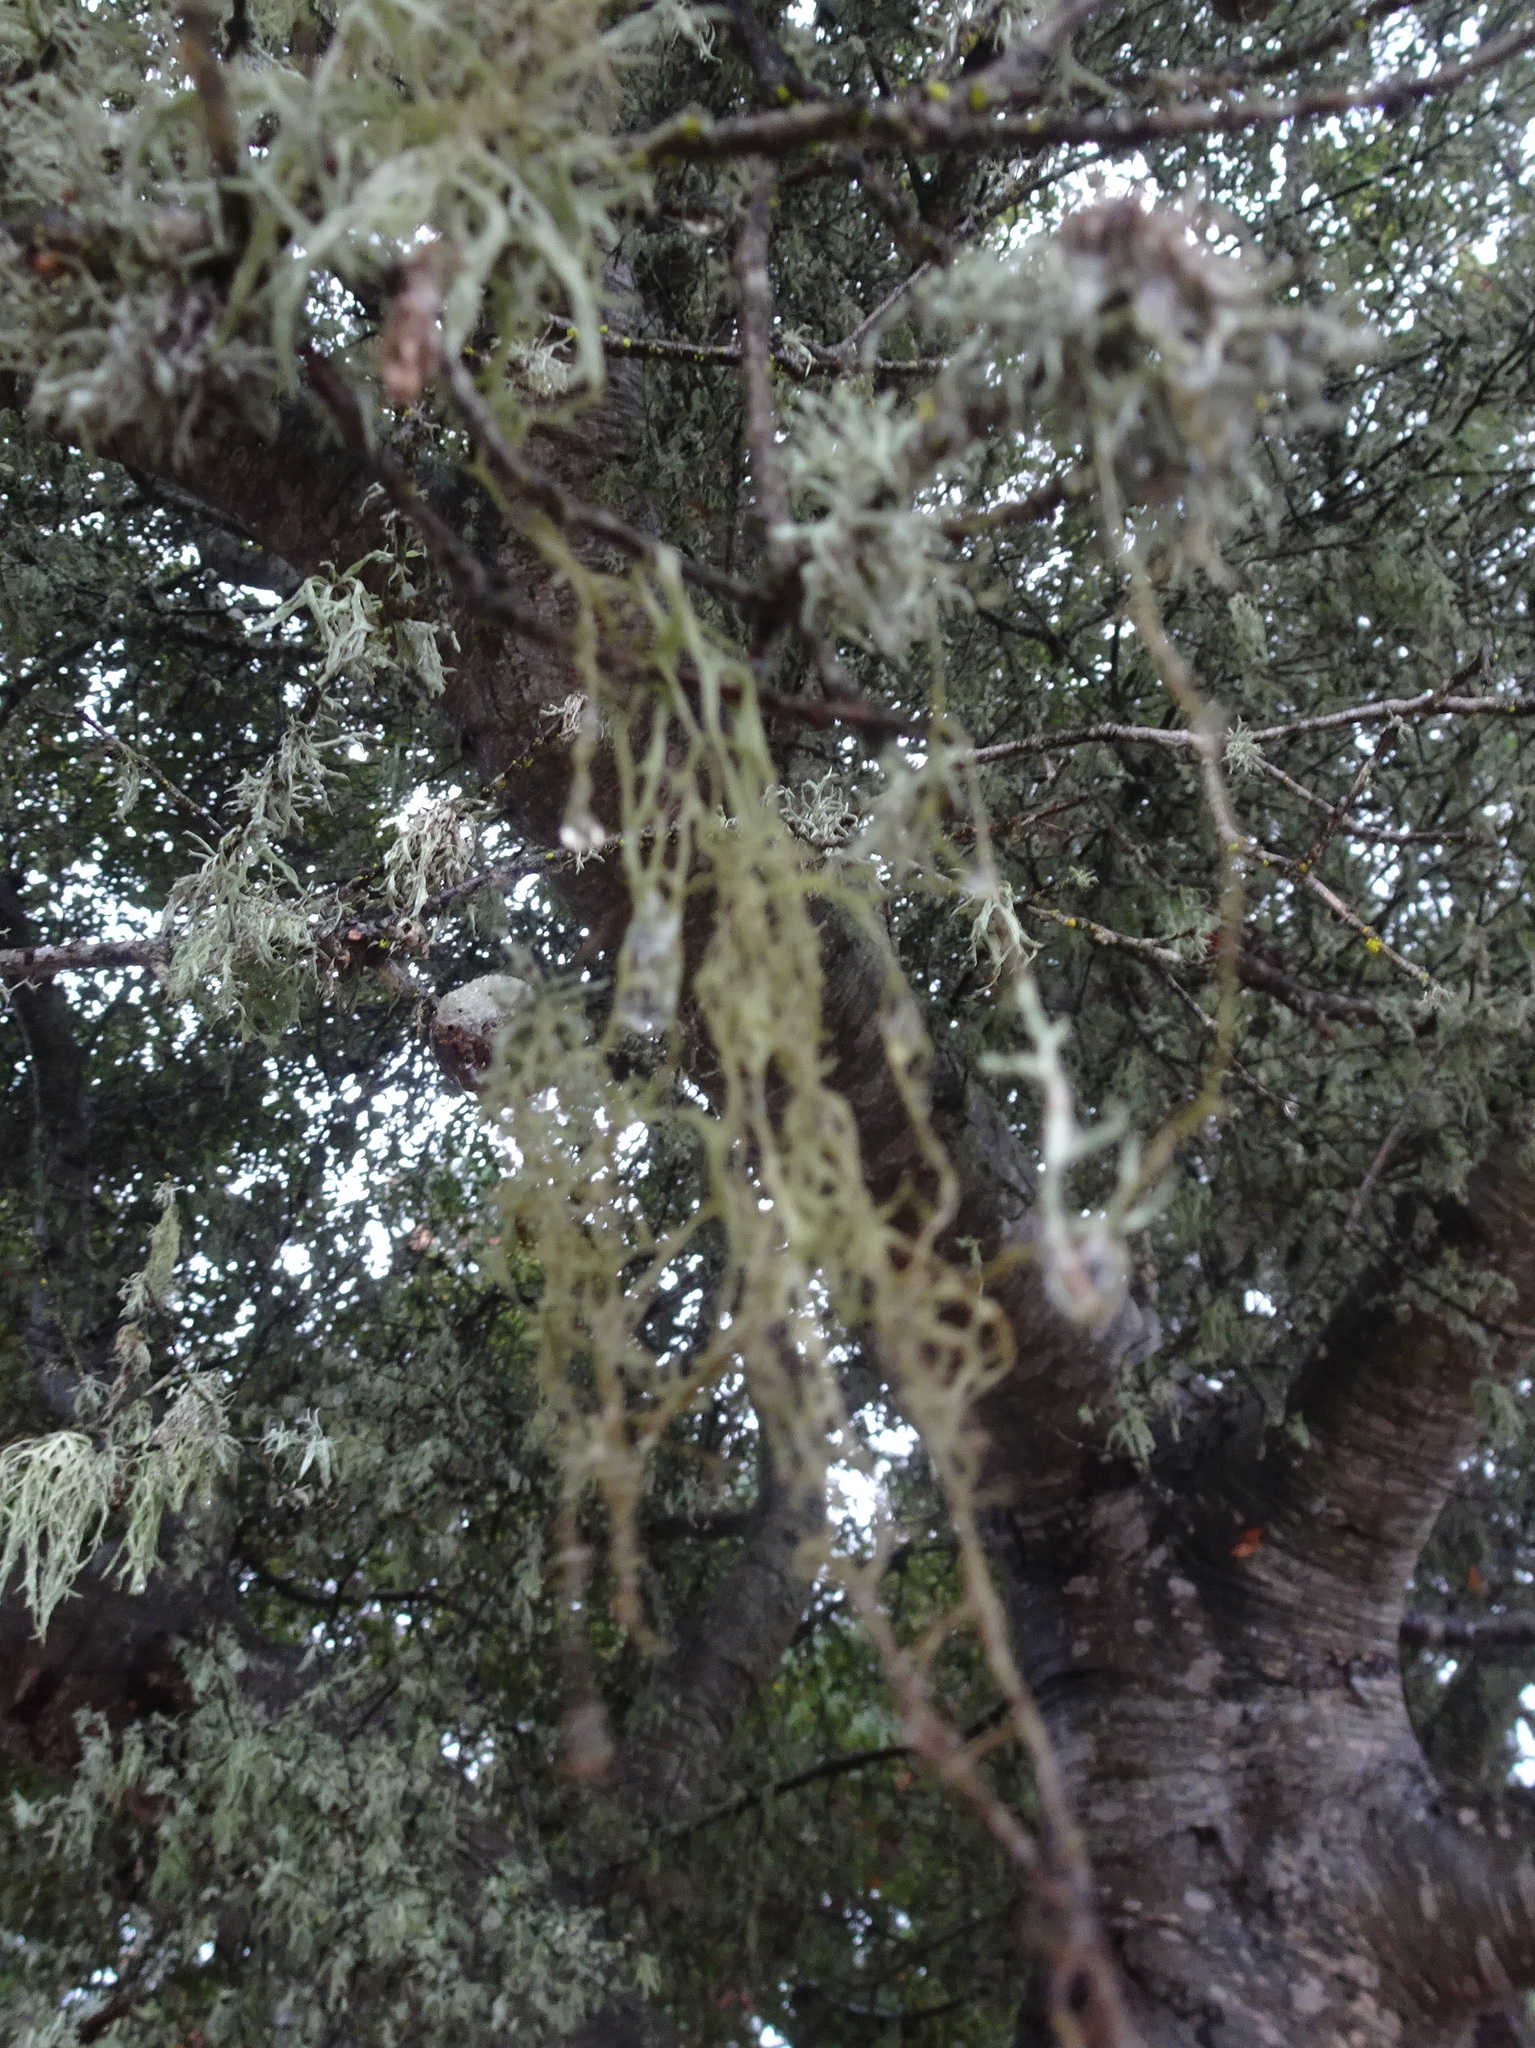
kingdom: Fungi
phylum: Ascomycota
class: Lecanoromycetes
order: Lecanorales
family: Ramalinaceae
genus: Ramalina
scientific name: Ramalina menziesii
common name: Lace lichen
